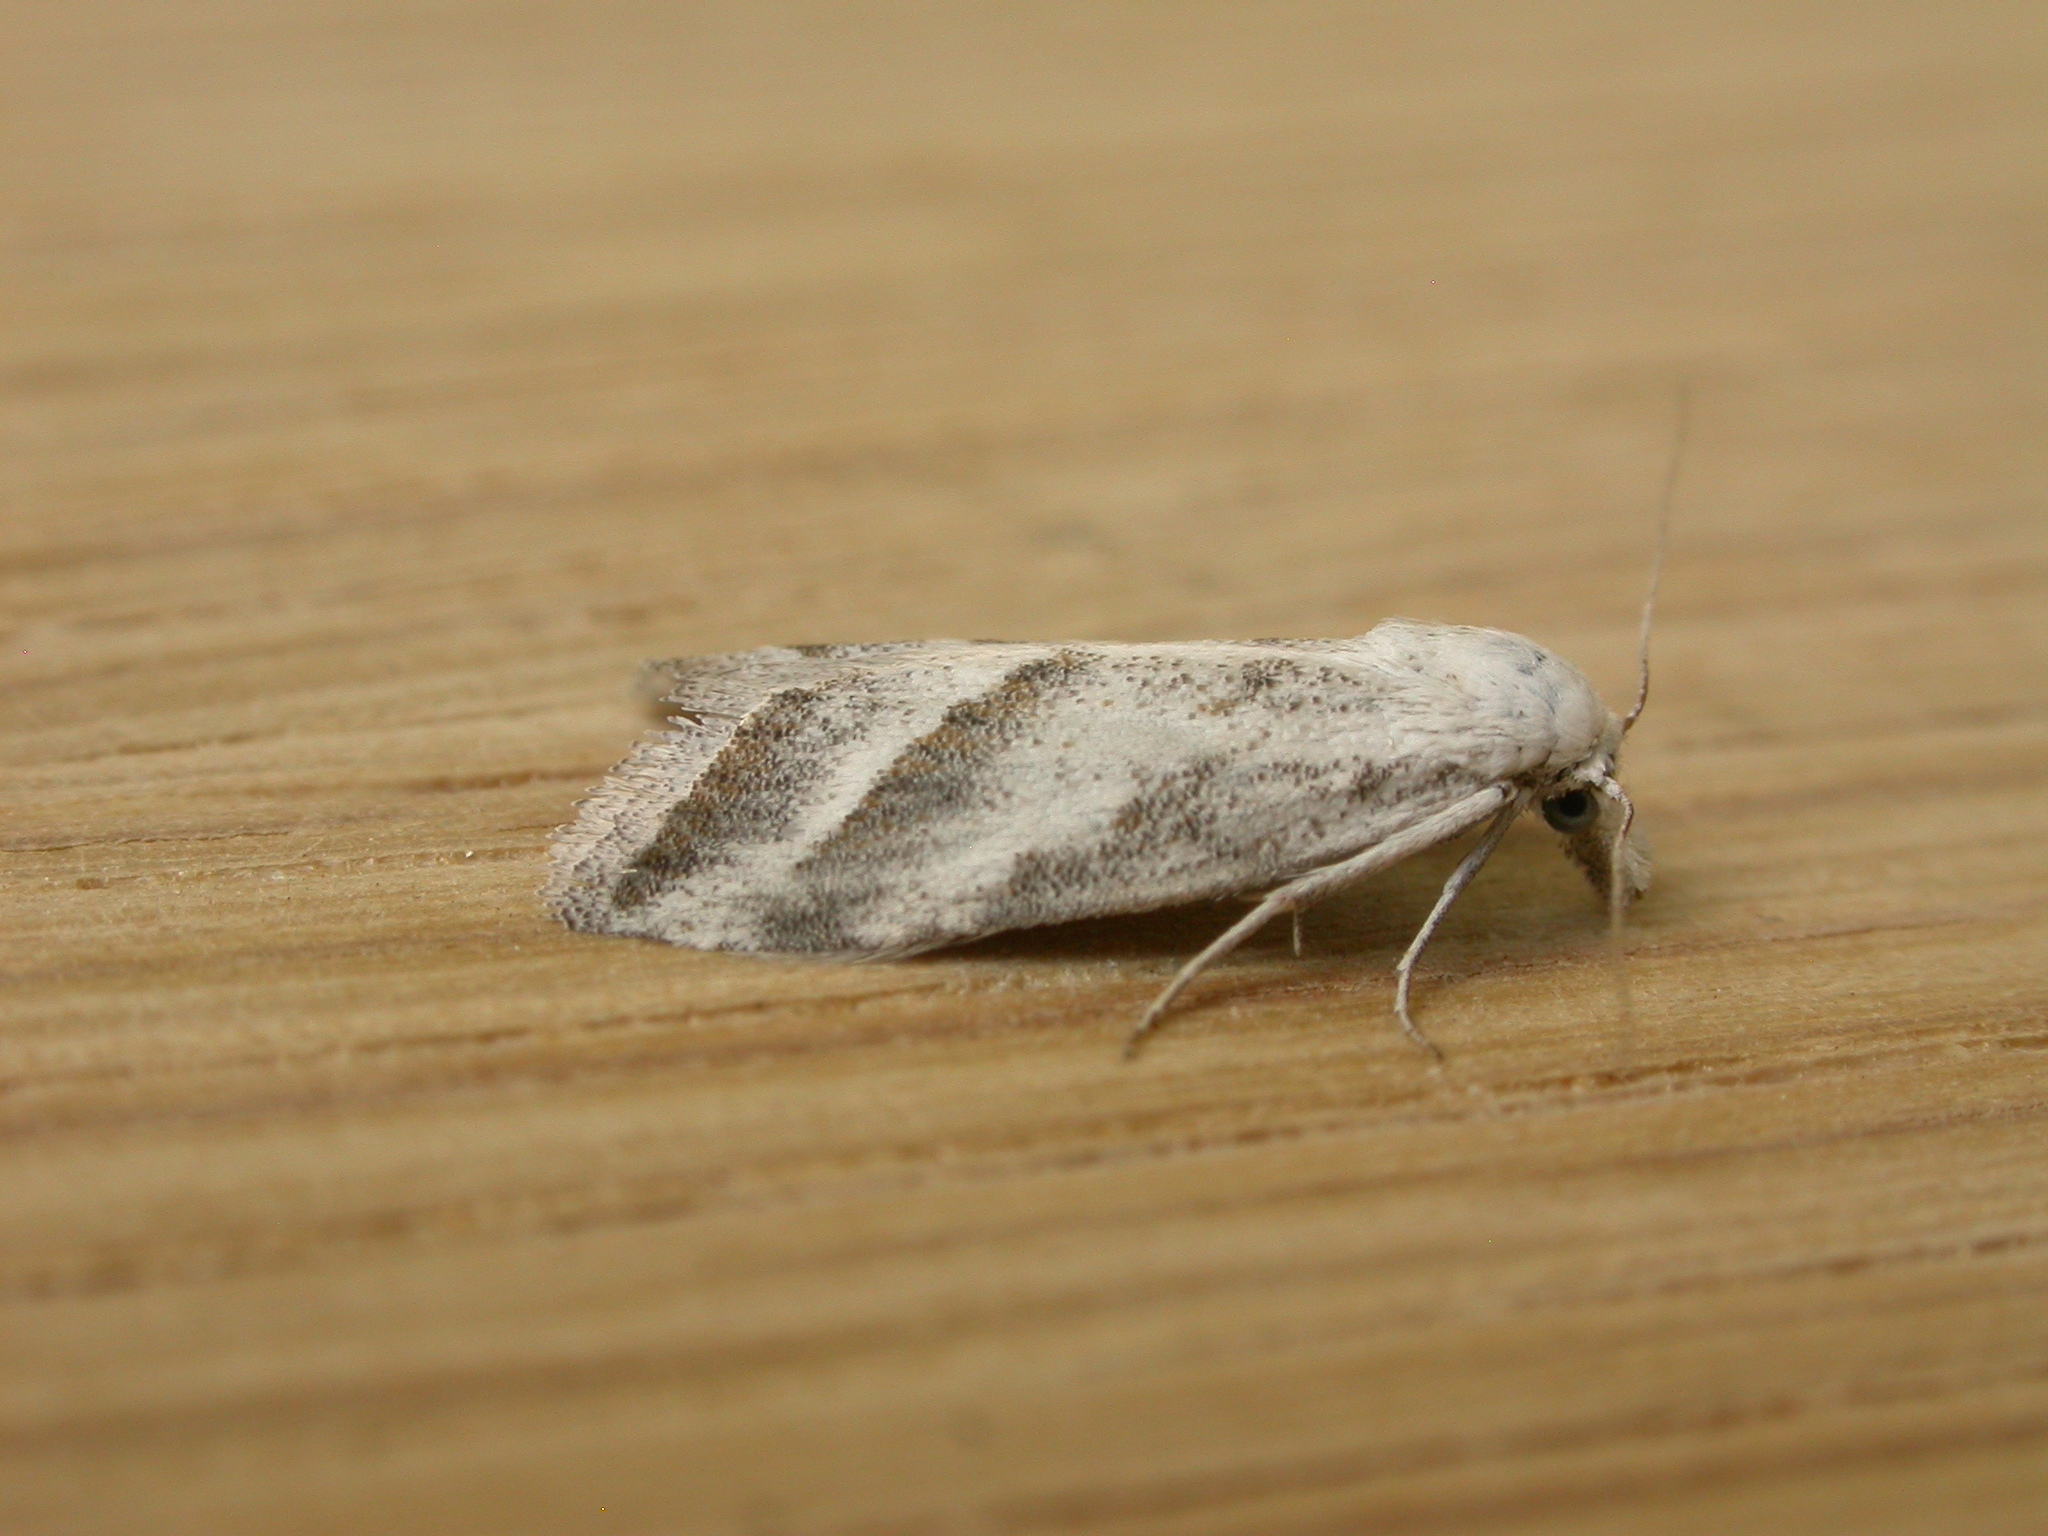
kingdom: Animalia
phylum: Arthropoda
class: Insecta
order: Lepidoptera
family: Nolidae
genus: Nola
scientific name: Nola paromoea
